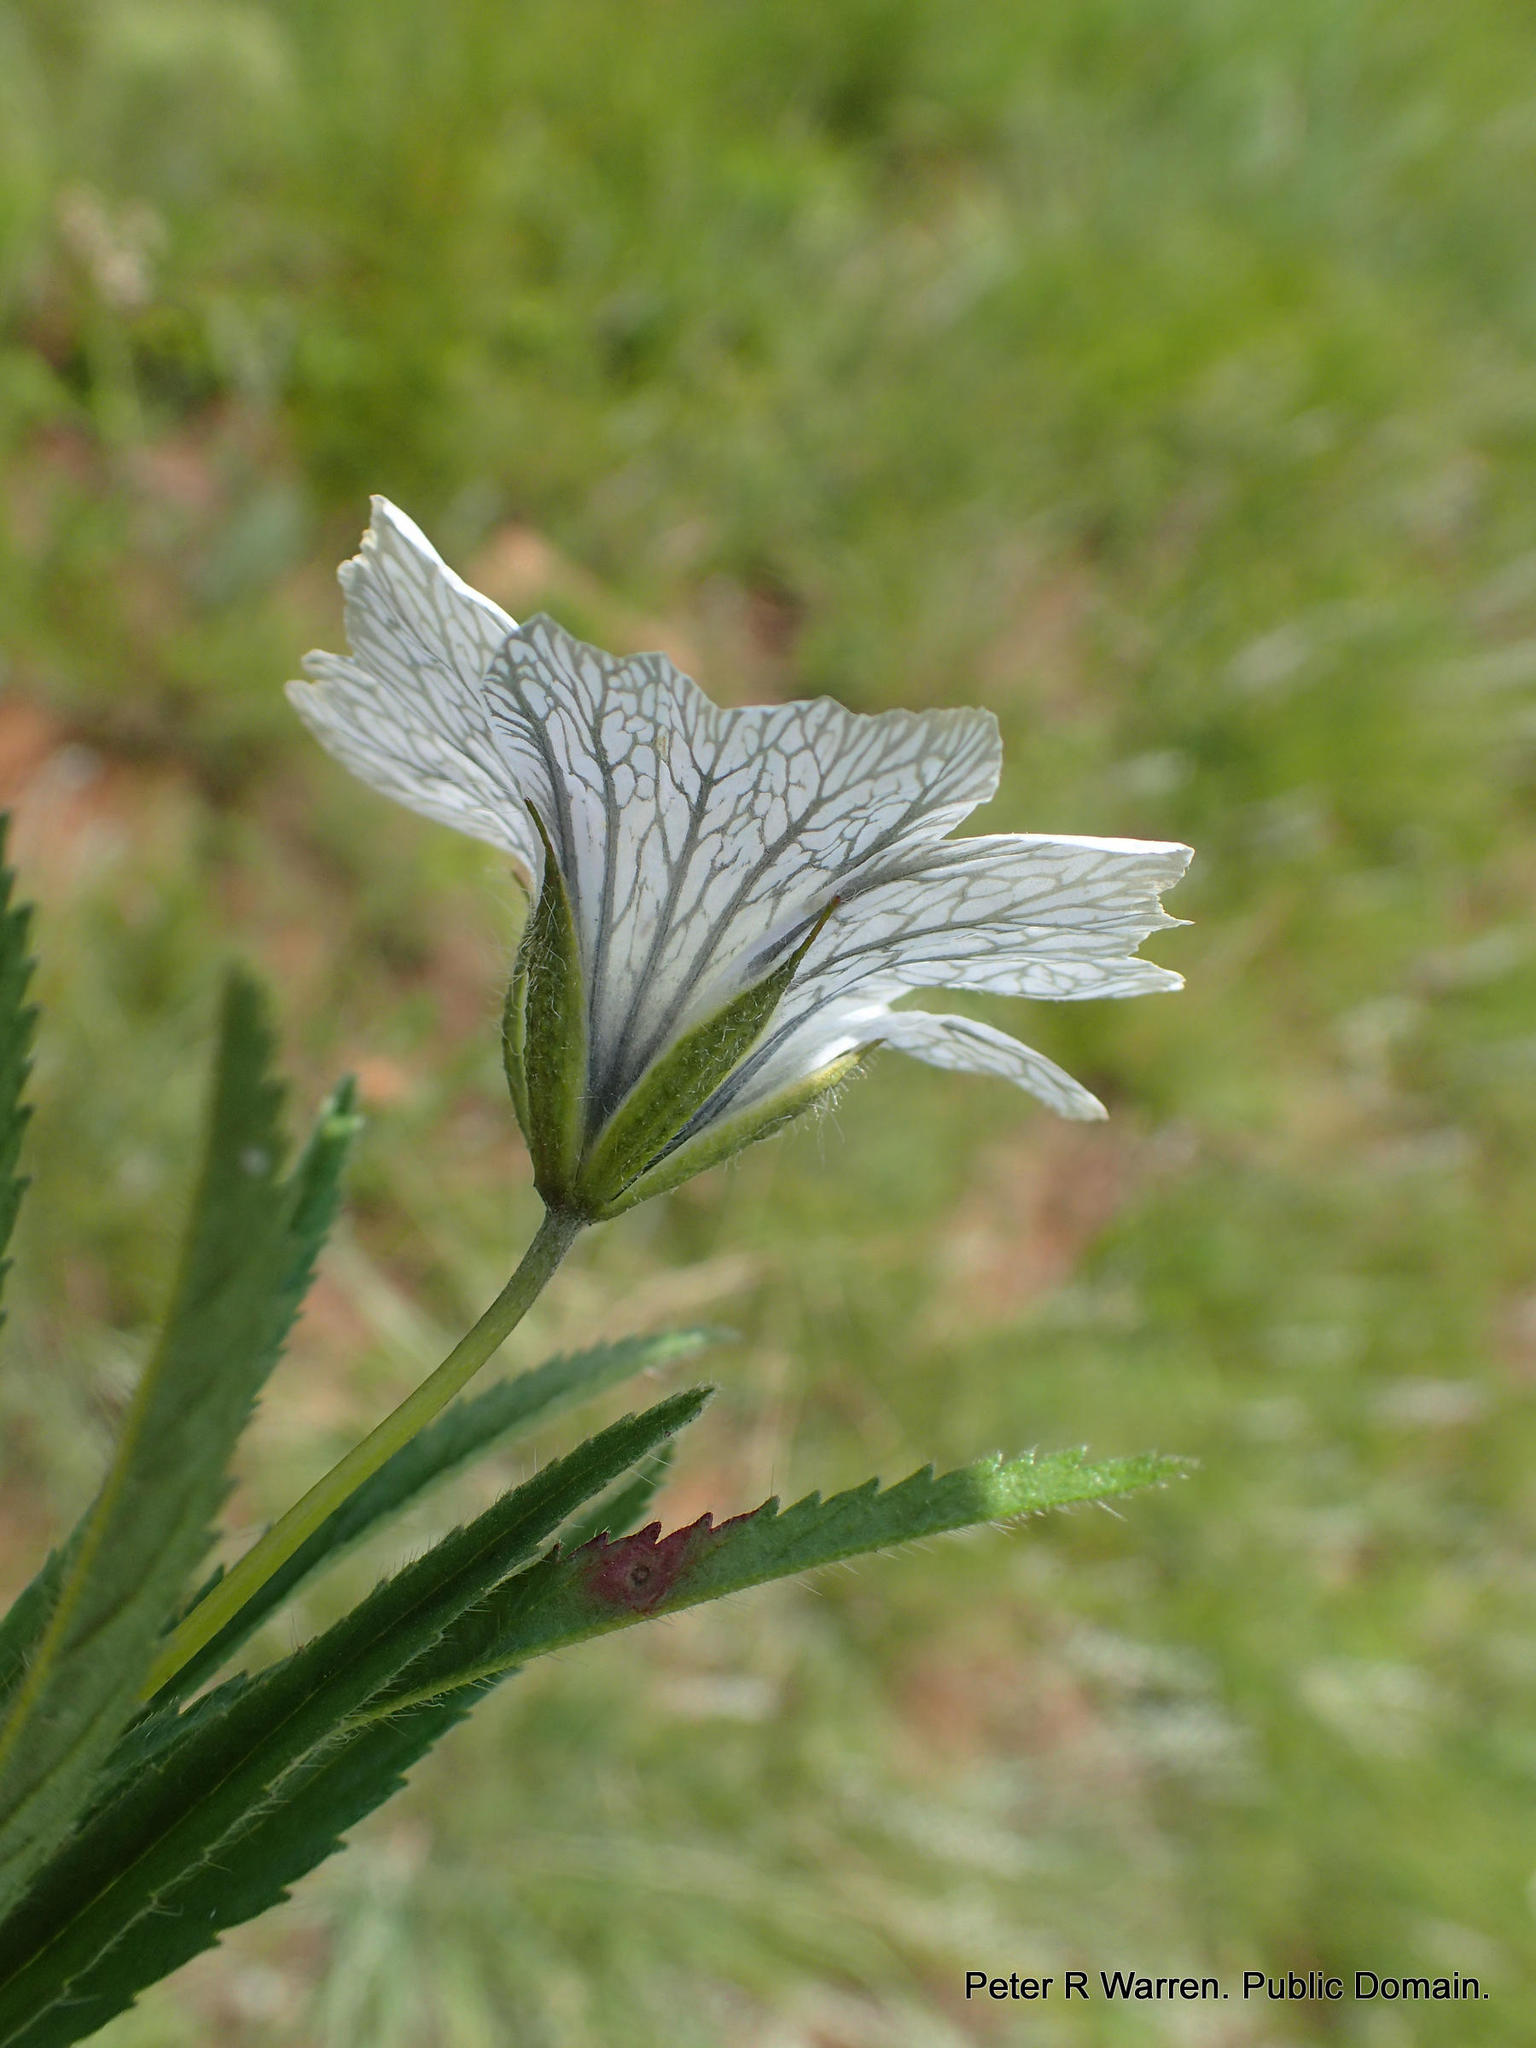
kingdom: Plantae
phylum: Tracheophyta
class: Magnoliopsida
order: Geraniales
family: Geraniaceae
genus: Monsonia
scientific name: Monsonia attenuata
